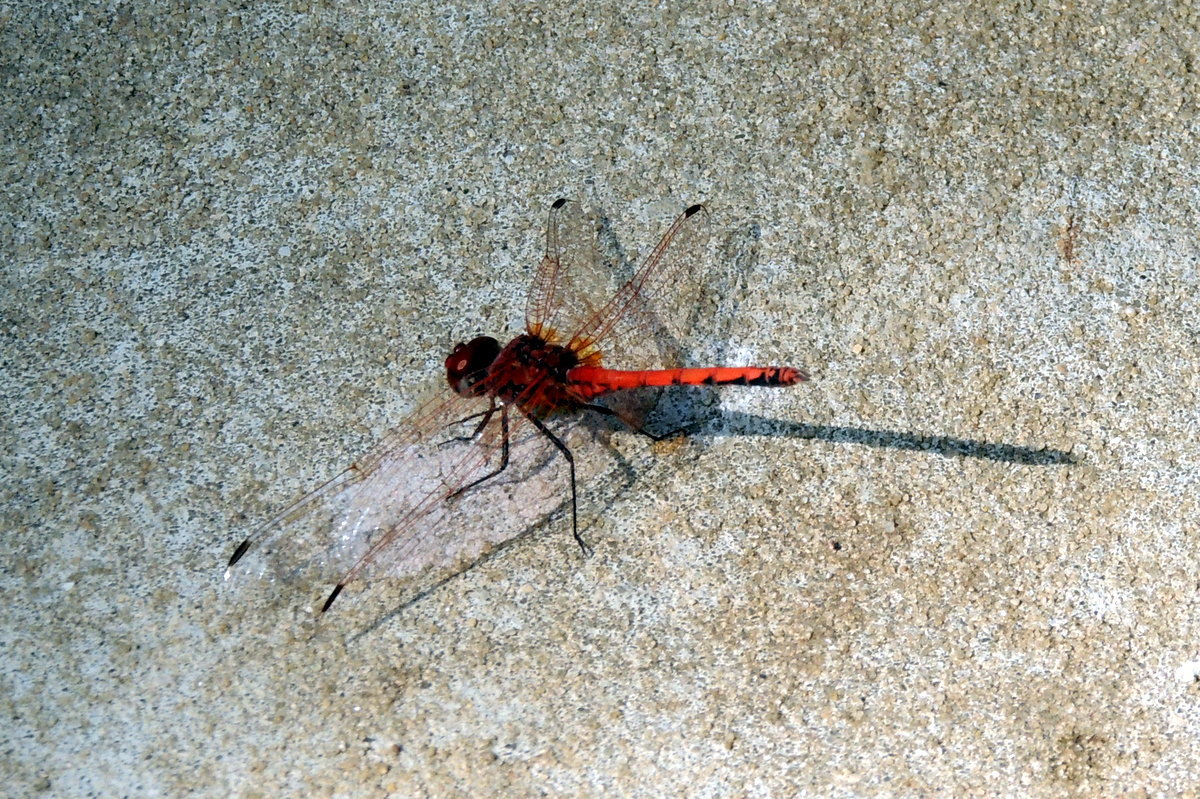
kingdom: Animalia
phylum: Arthropoda
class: Insecta
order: Odonata
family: Libellulidae
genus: Trithemis
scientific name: Trithemis arteriosa
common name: Red-veined dropwing
